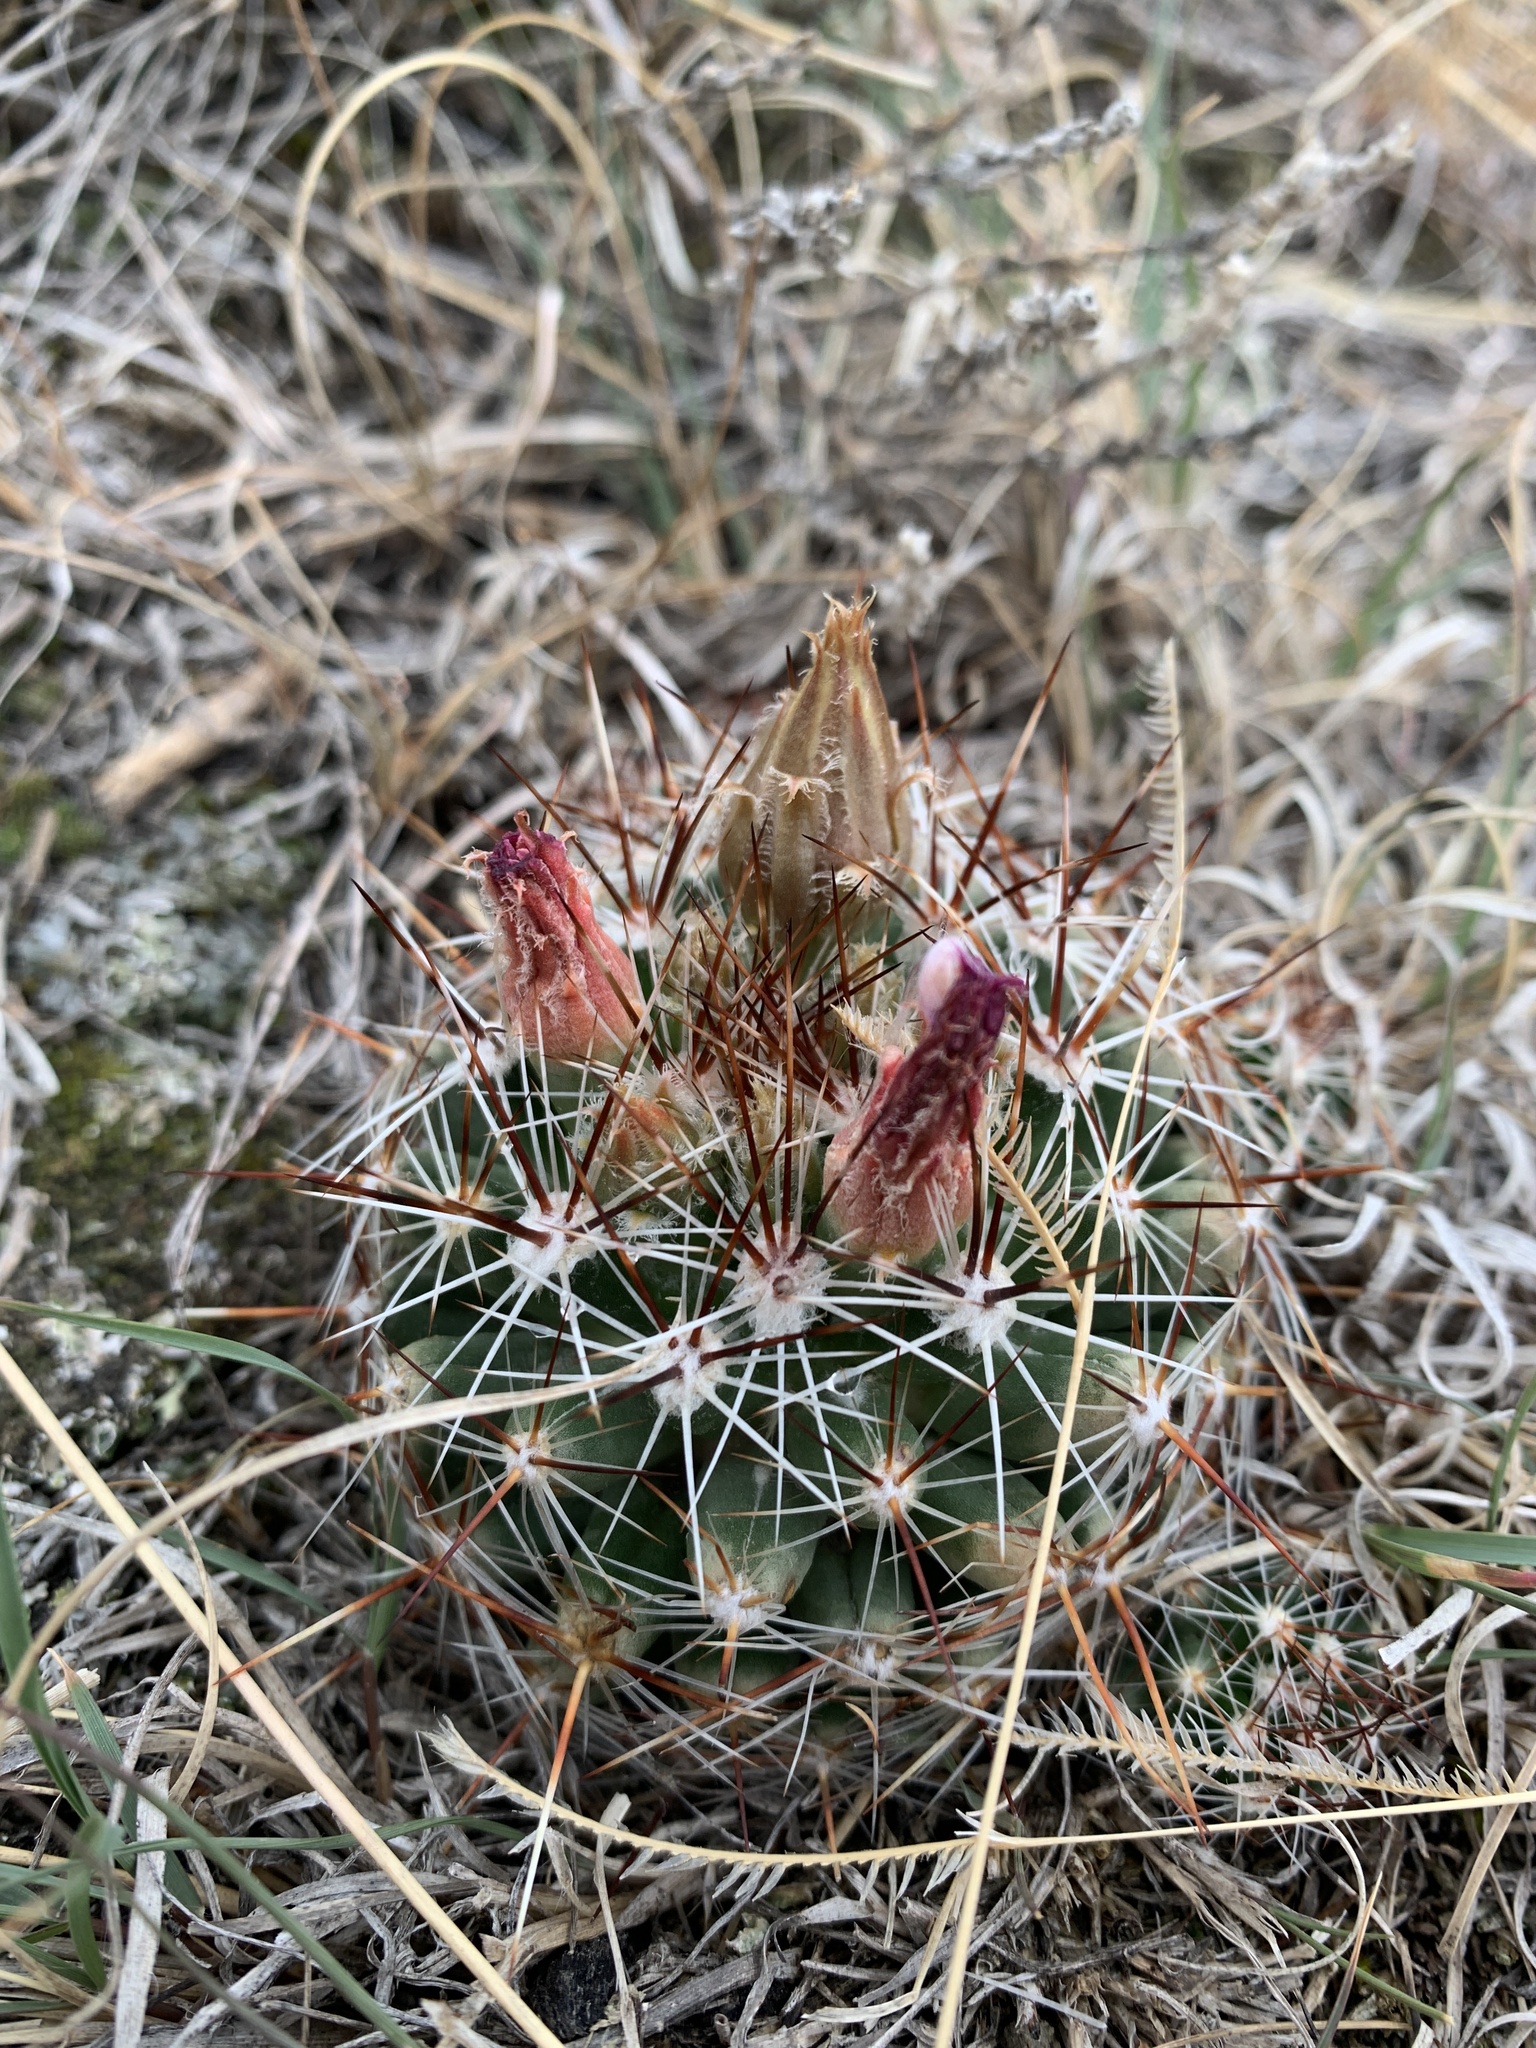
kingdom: Plantae
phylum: Tracheophyta
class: Magnoliopsida
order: Caryophyllales
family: Cactaceae
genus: Pelecyphora
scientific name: Pelecyphora vivipara
